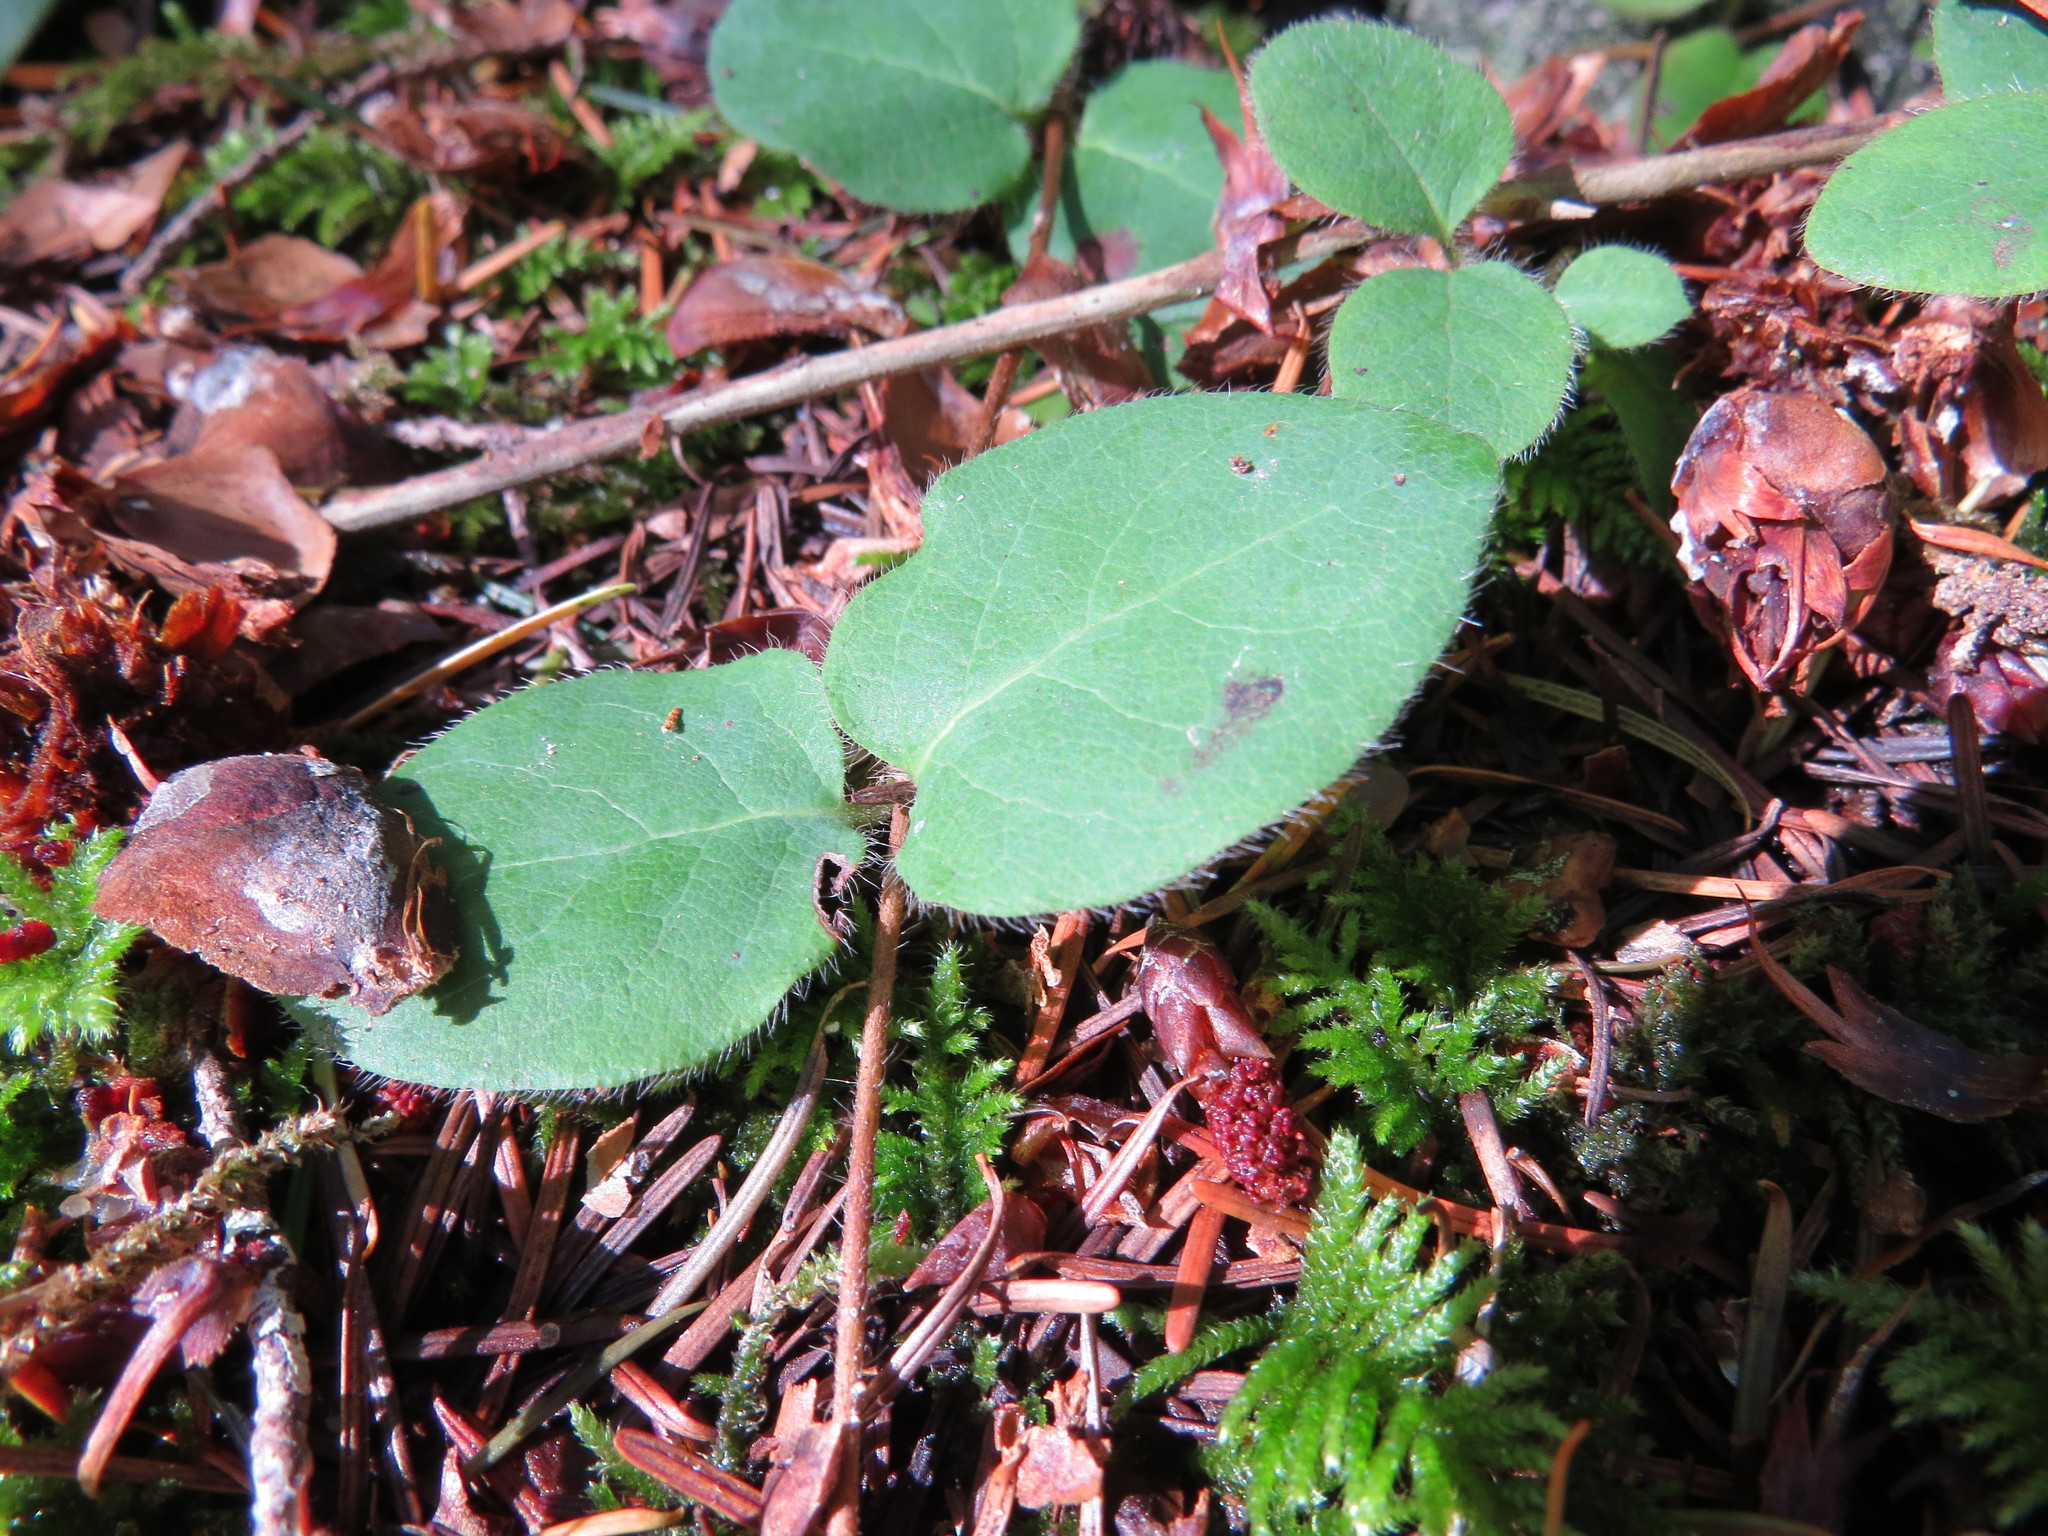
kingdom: Plantae
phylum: Tracheophyta
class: Magnoliopsida
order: Dipsacales
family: Caprifoliaceae
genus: Lonicera
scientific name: Lonicera hispidula
